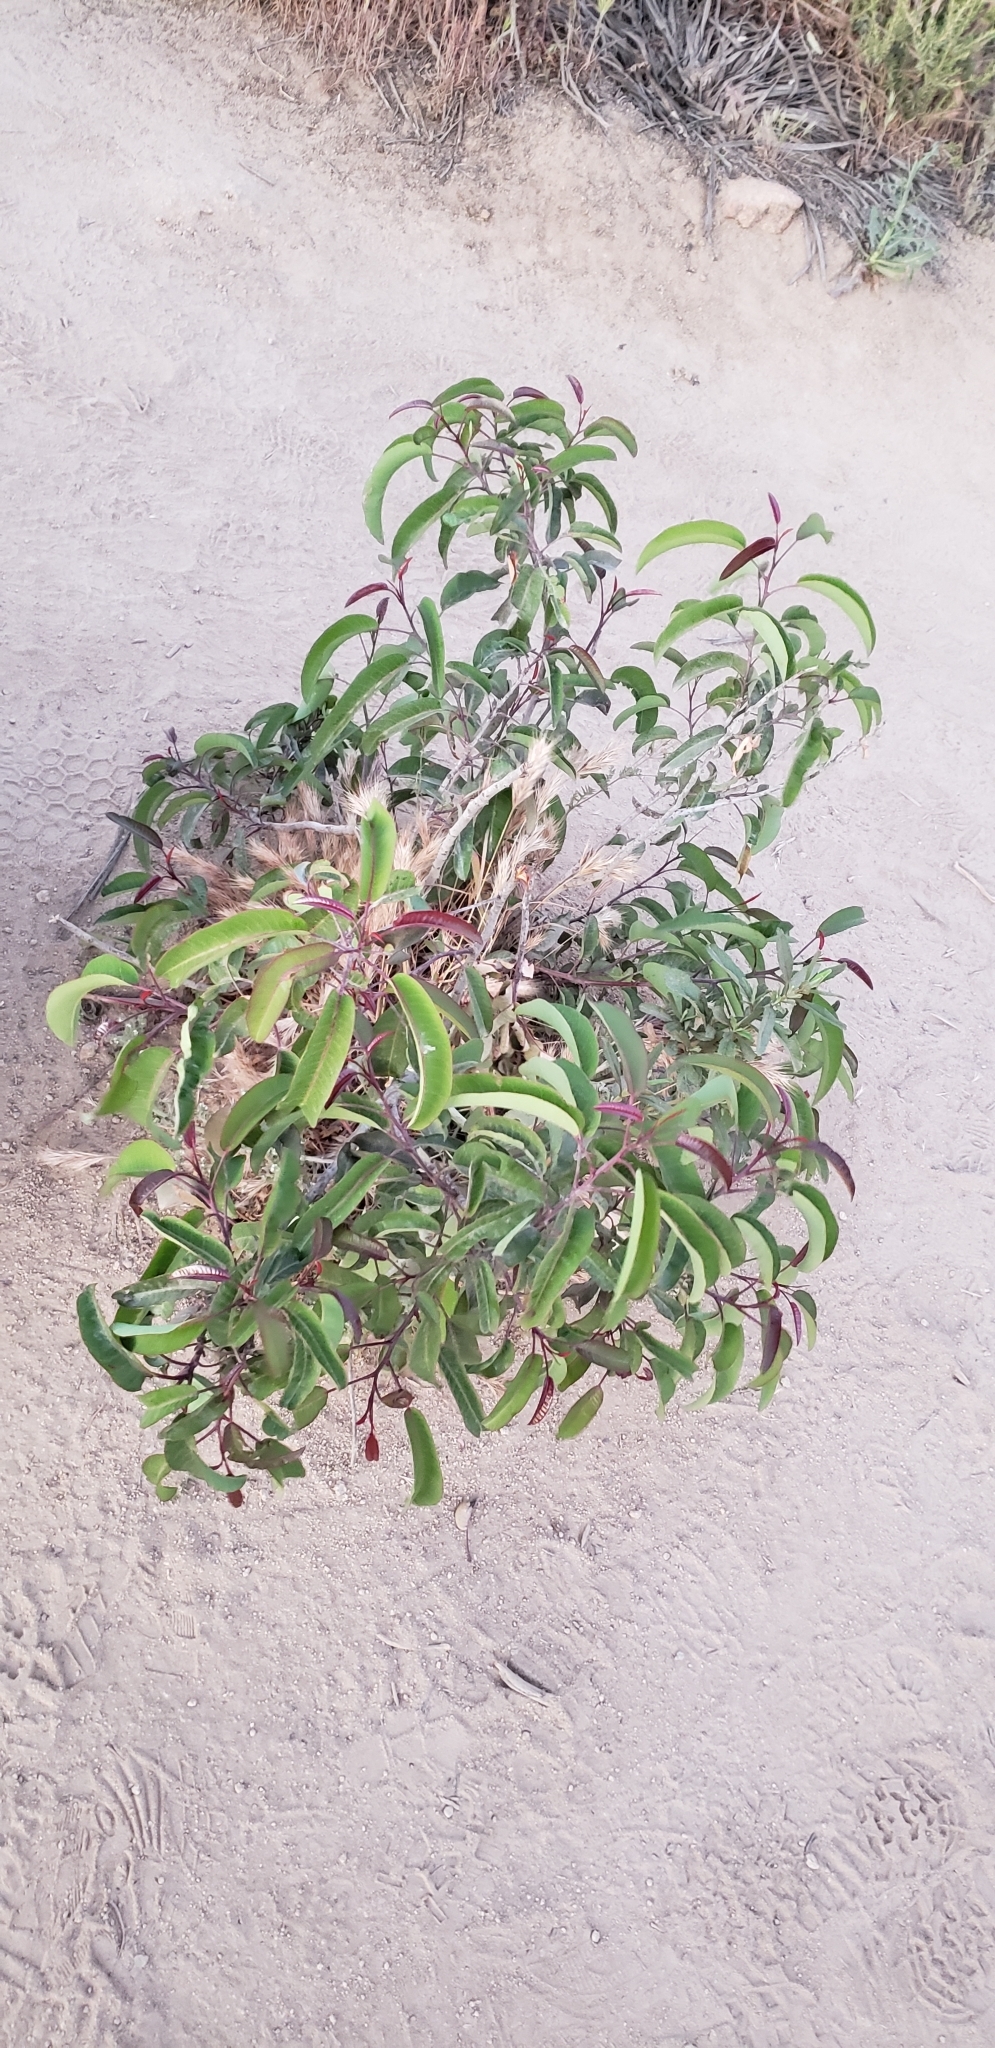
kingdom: Plantae
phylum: Tracheophyta
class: Magnoliopsida
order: Sapindales
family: Anacardiaceae
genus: Malosma
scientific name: Malosma laurina
